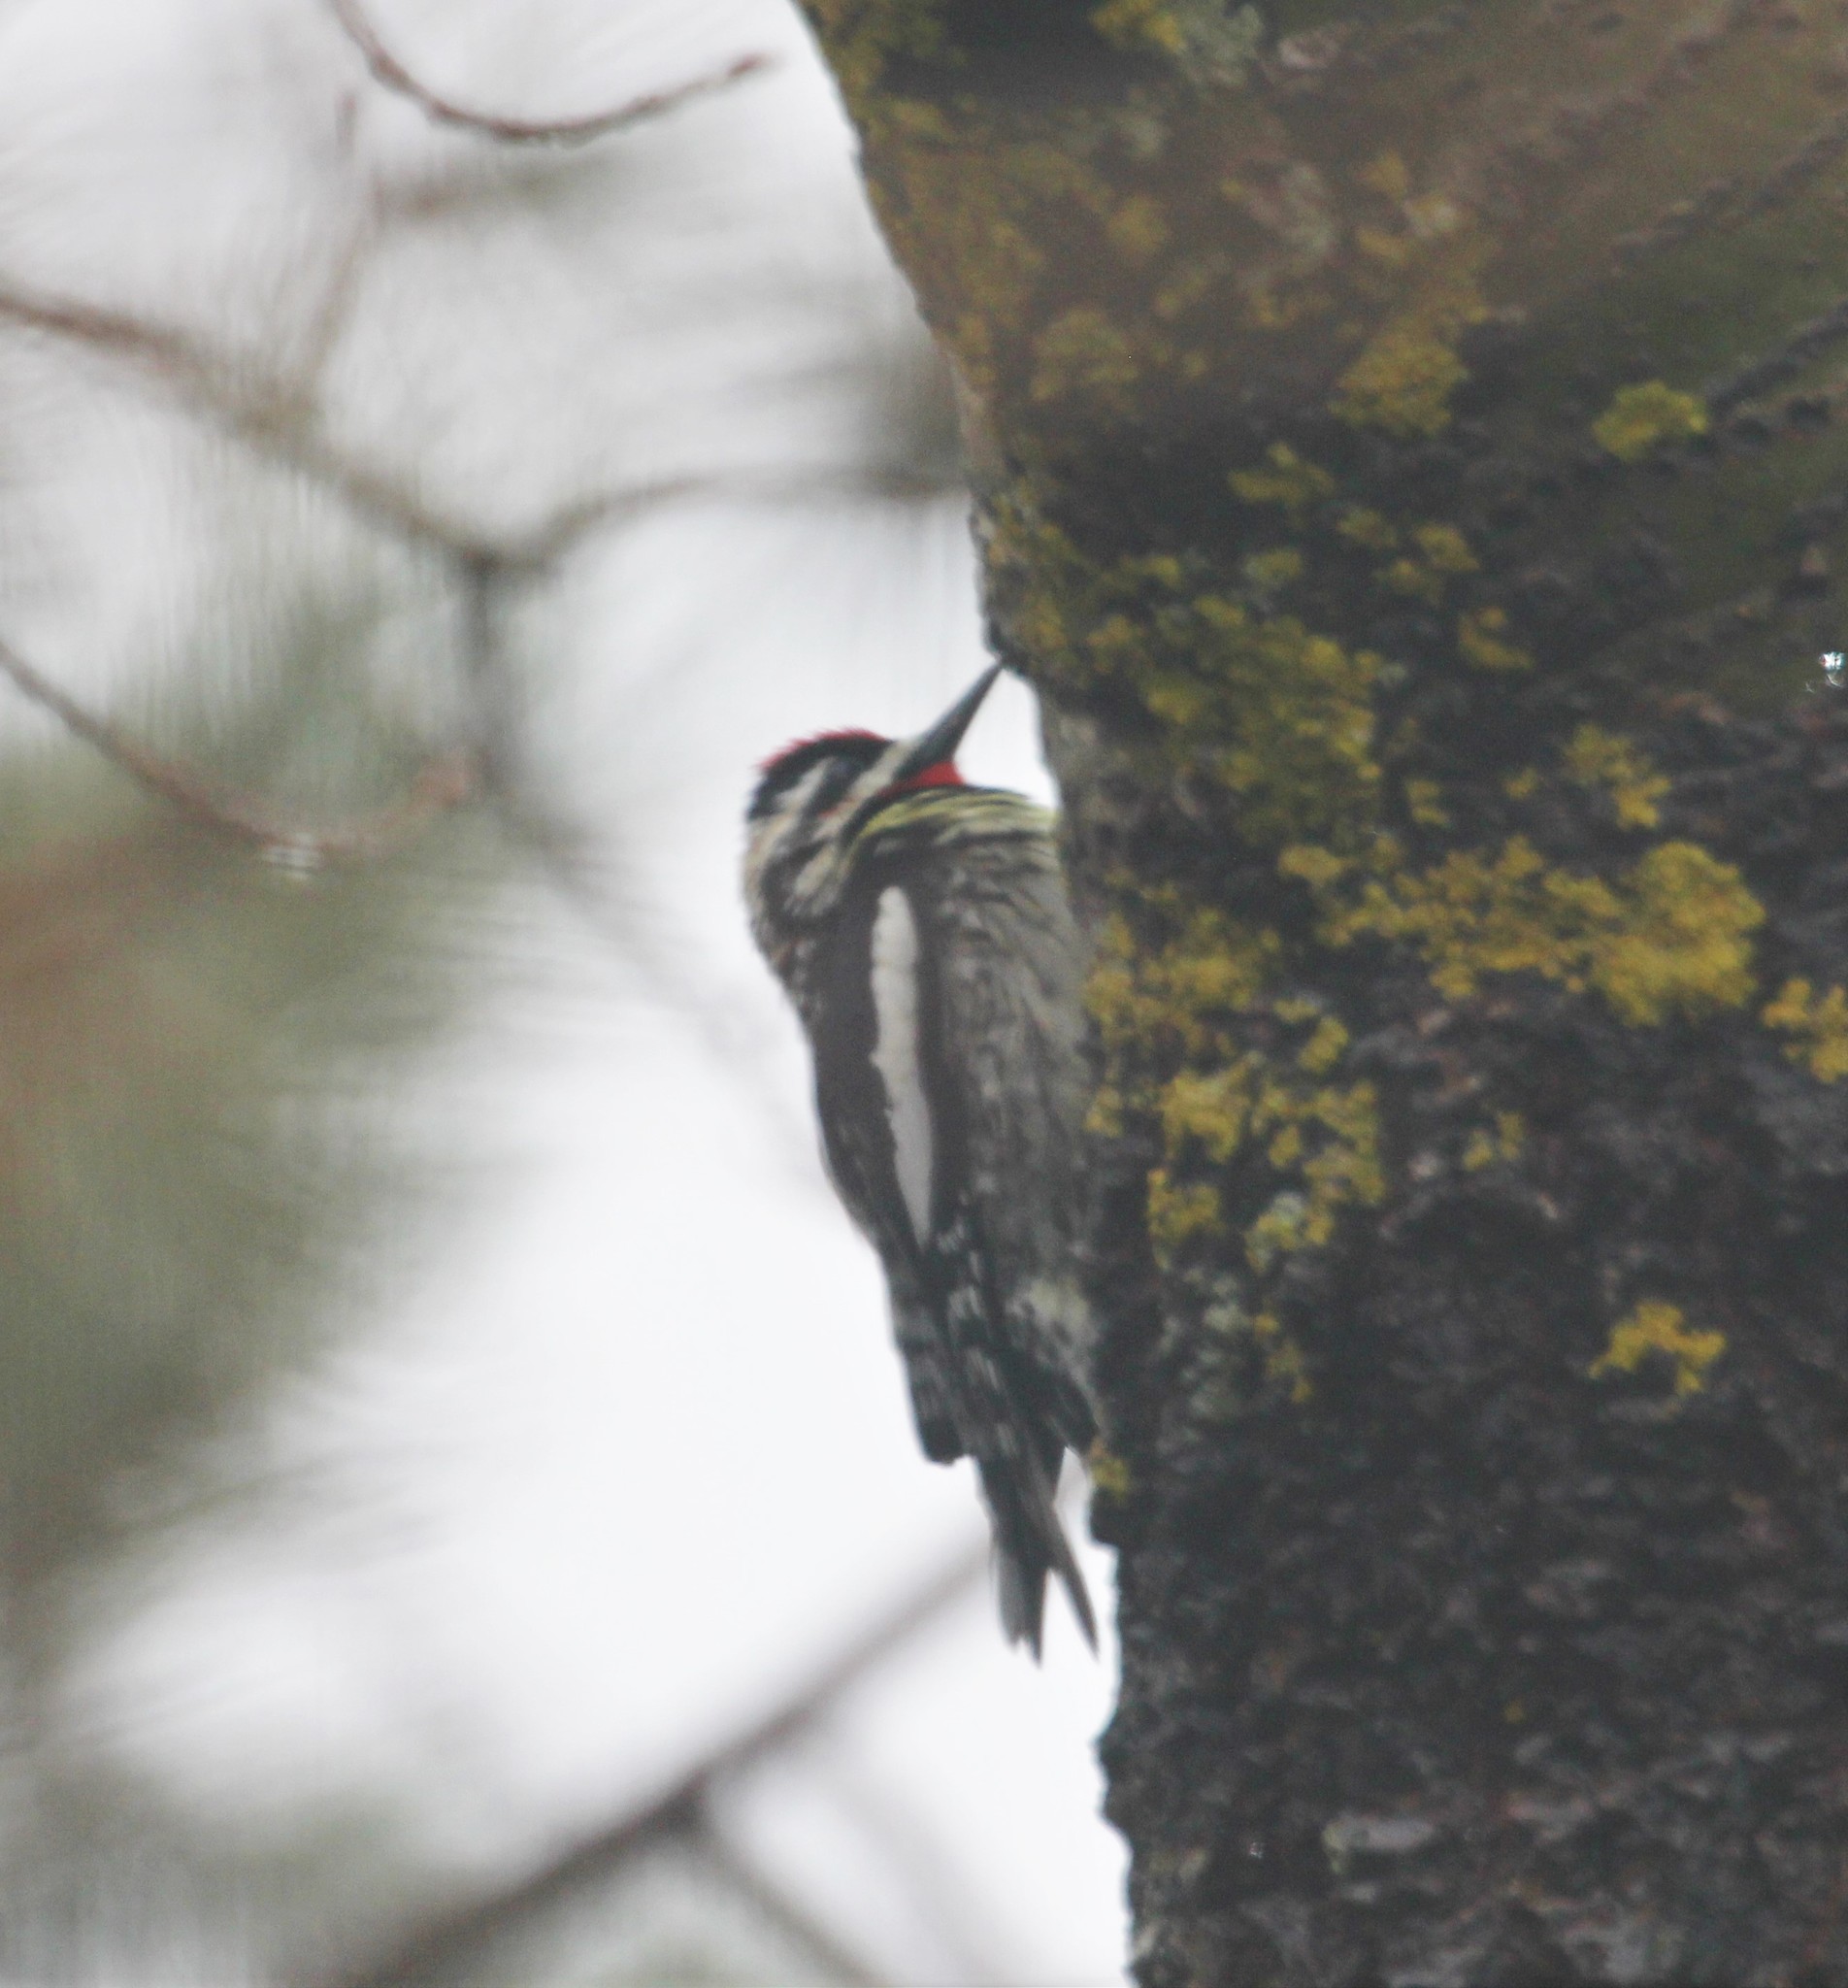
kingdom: Animalia
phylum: Chordata
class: Aves
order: Piciformes
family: Picidae
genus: Sphyrapicus
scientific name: Sphyrapicus varius
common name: Yellow-bellied sapsucker
